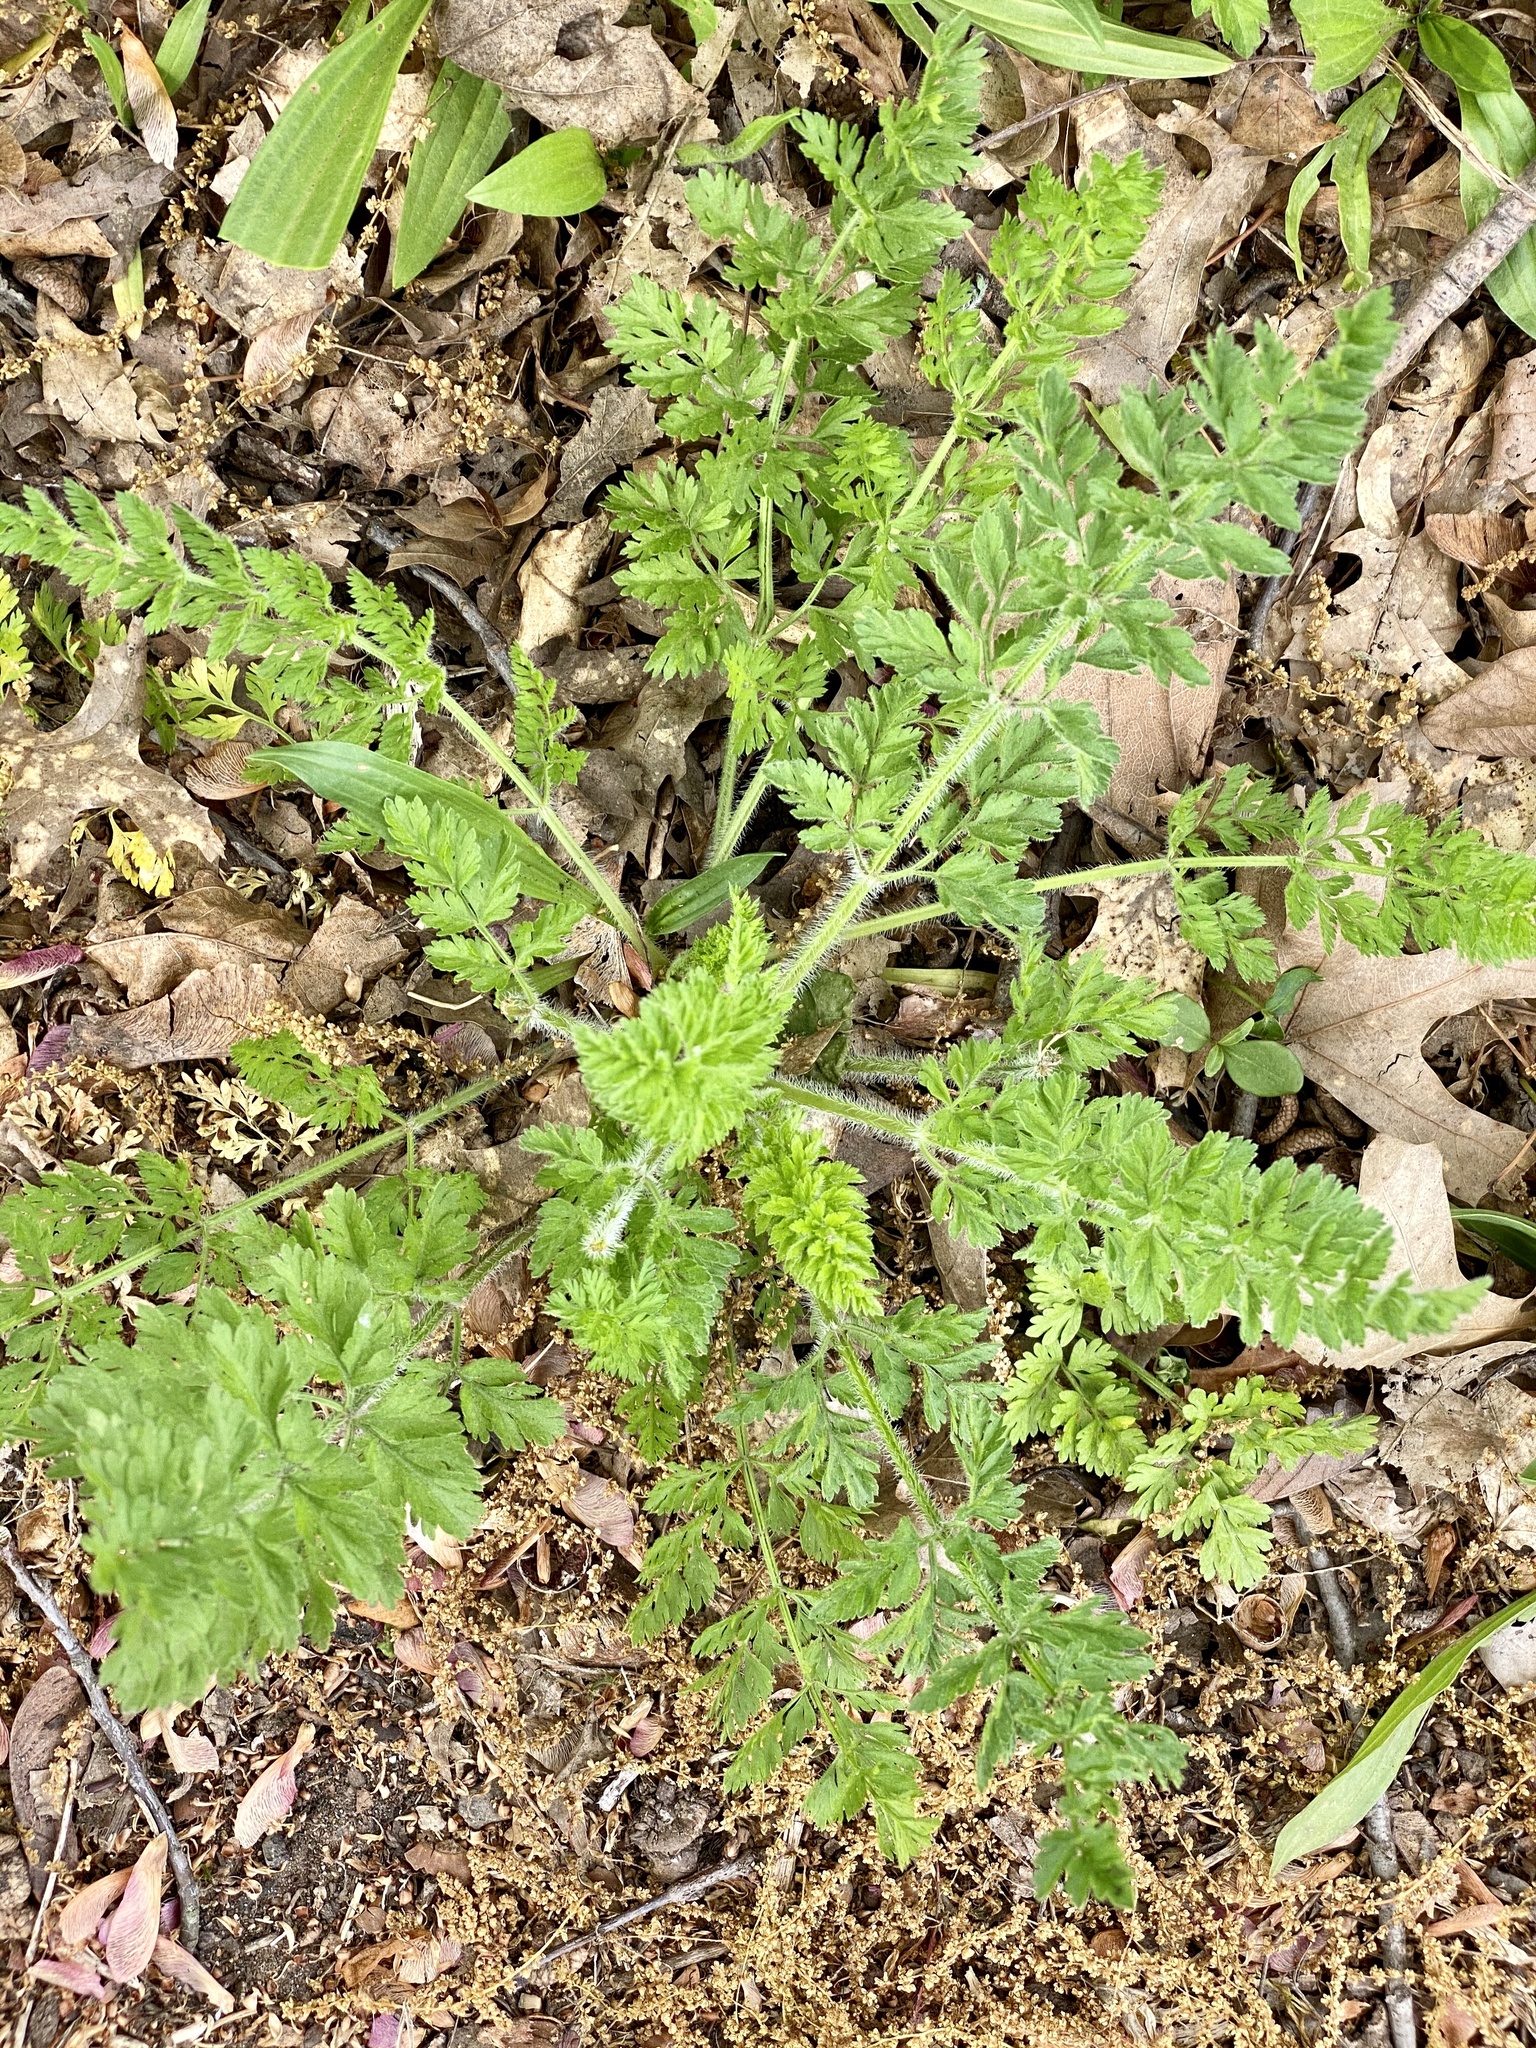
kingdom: Plantae
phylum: Tracheophyta
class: Magnoliopsida
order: Apiales
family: Apiaceae
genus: Daucus
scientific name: Daucus carota
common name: Wild carrot
